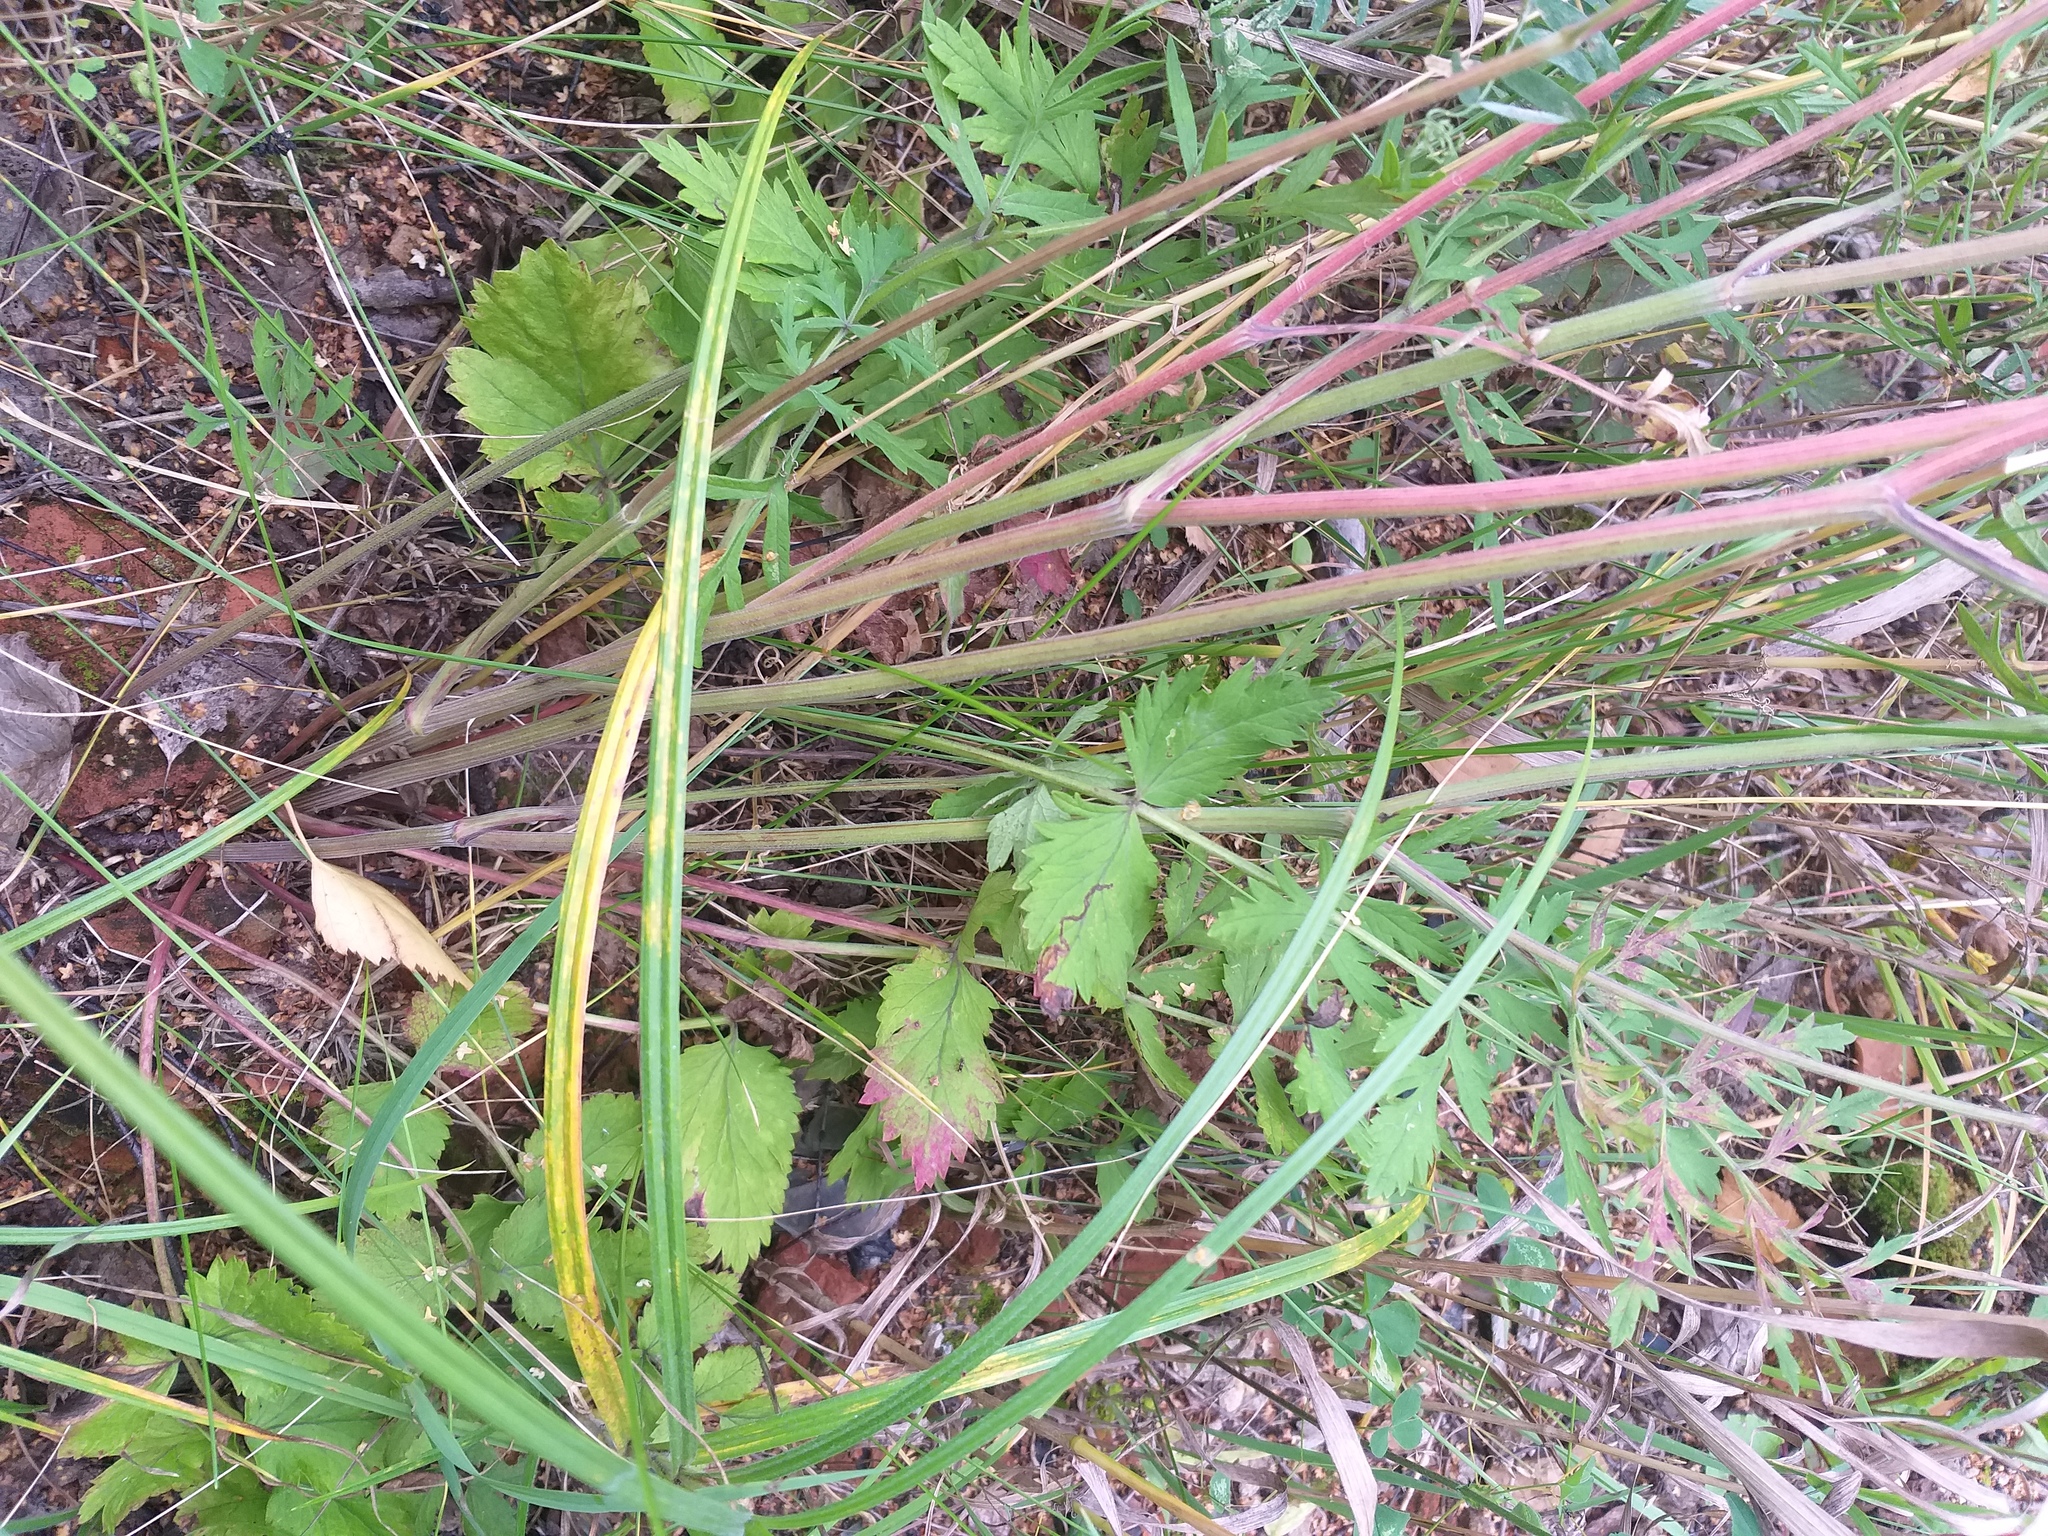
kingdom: Plantae
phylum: Tracheophyta
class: Magnoliopsida
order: Apiales
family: Apiaceae
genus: Pimpinella
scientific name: Pimpinella saxifraga
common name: Burnet-saxifrage
